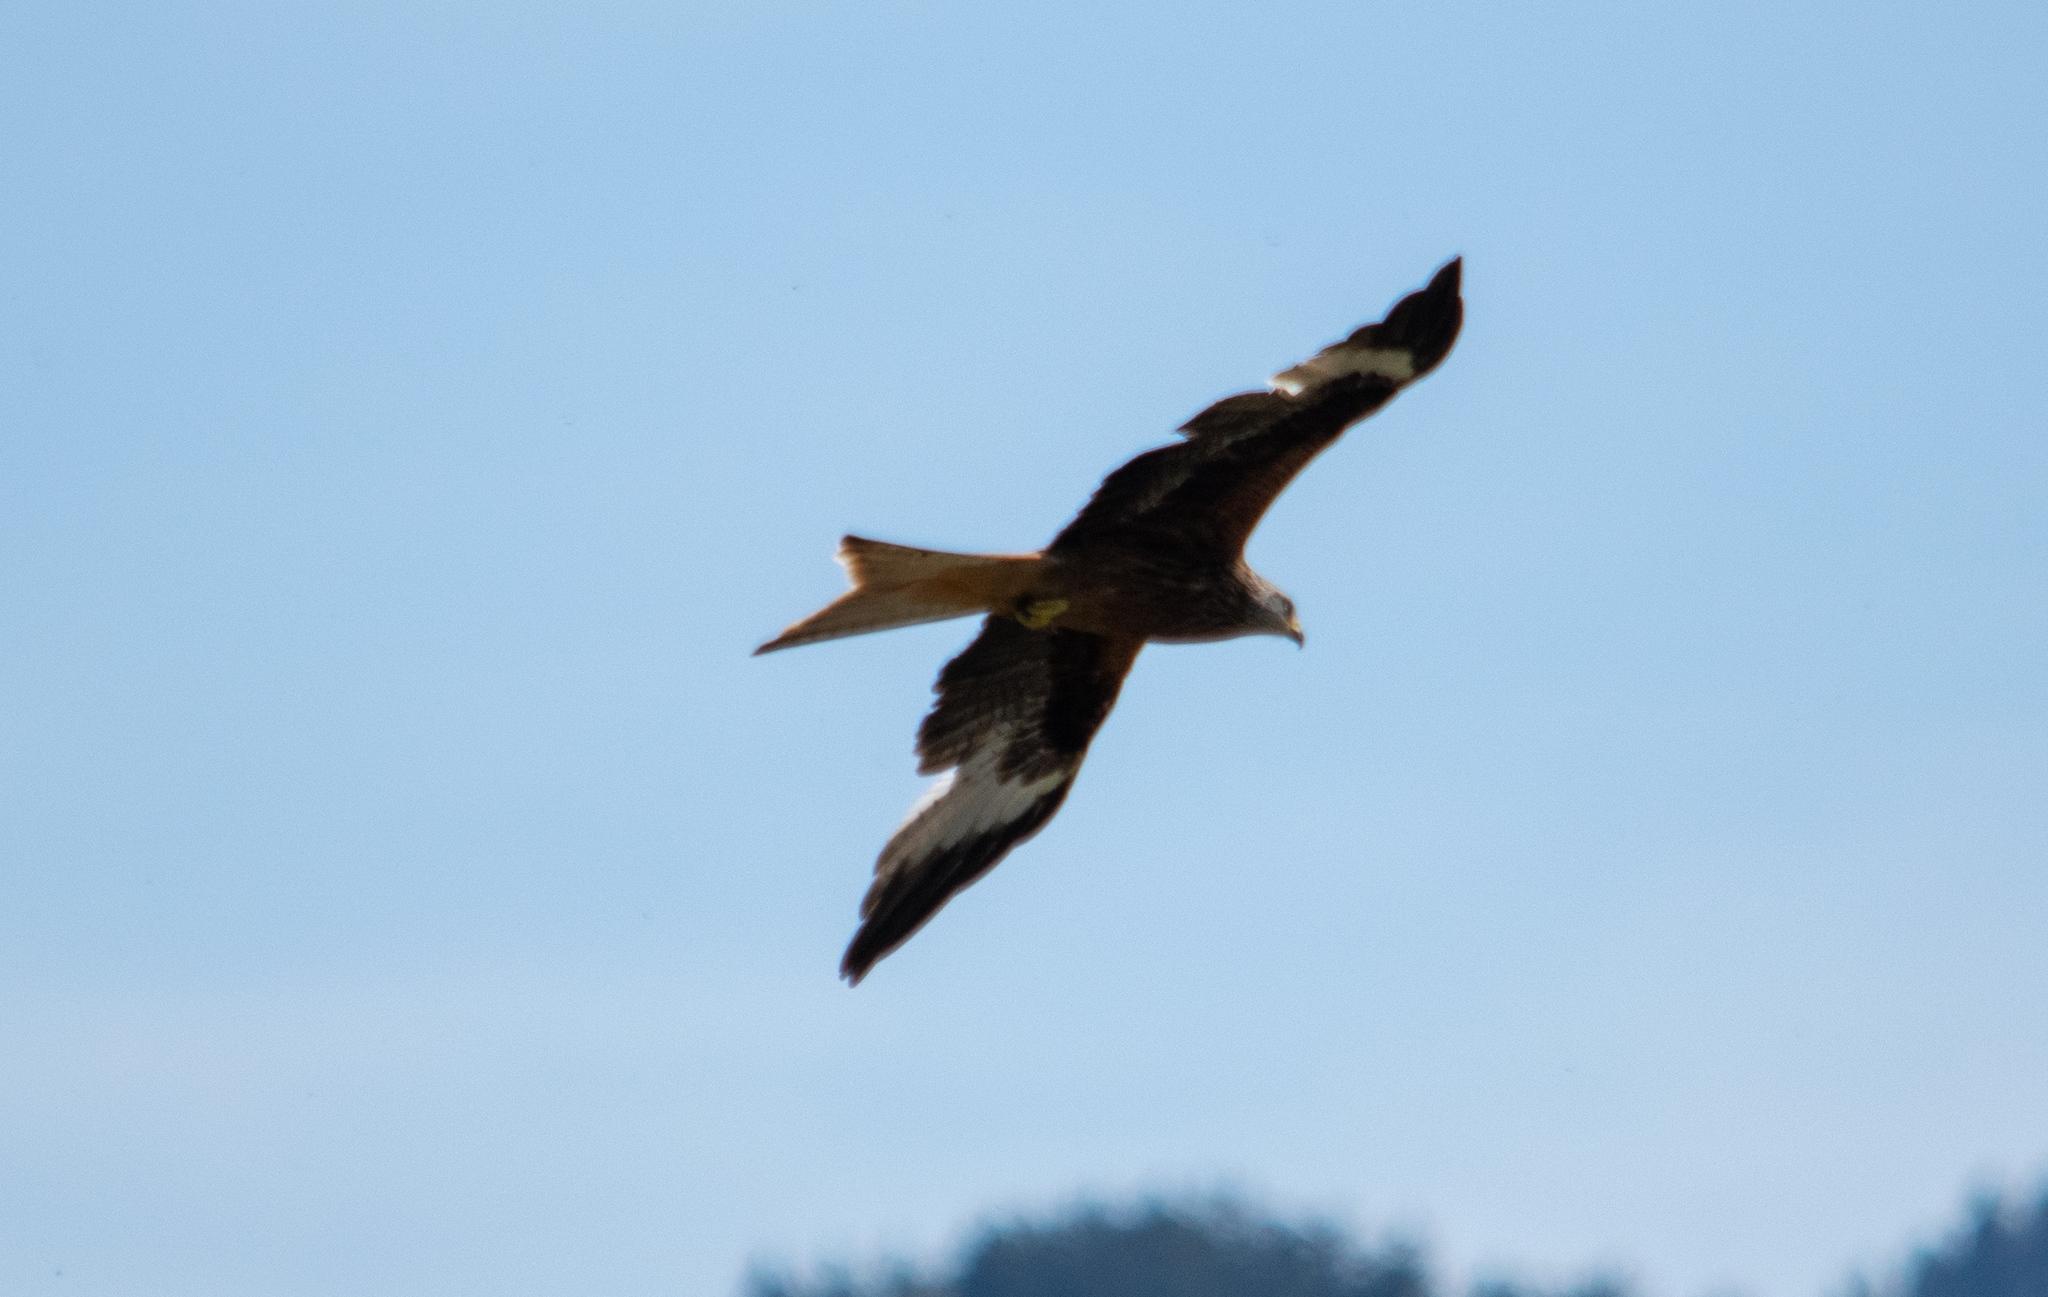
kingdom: Animalia
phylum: Chordata
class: Aves
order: Accipitriformes
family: Accipitridae
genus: Milvus
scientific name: Milvus milvus
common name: Red kite
